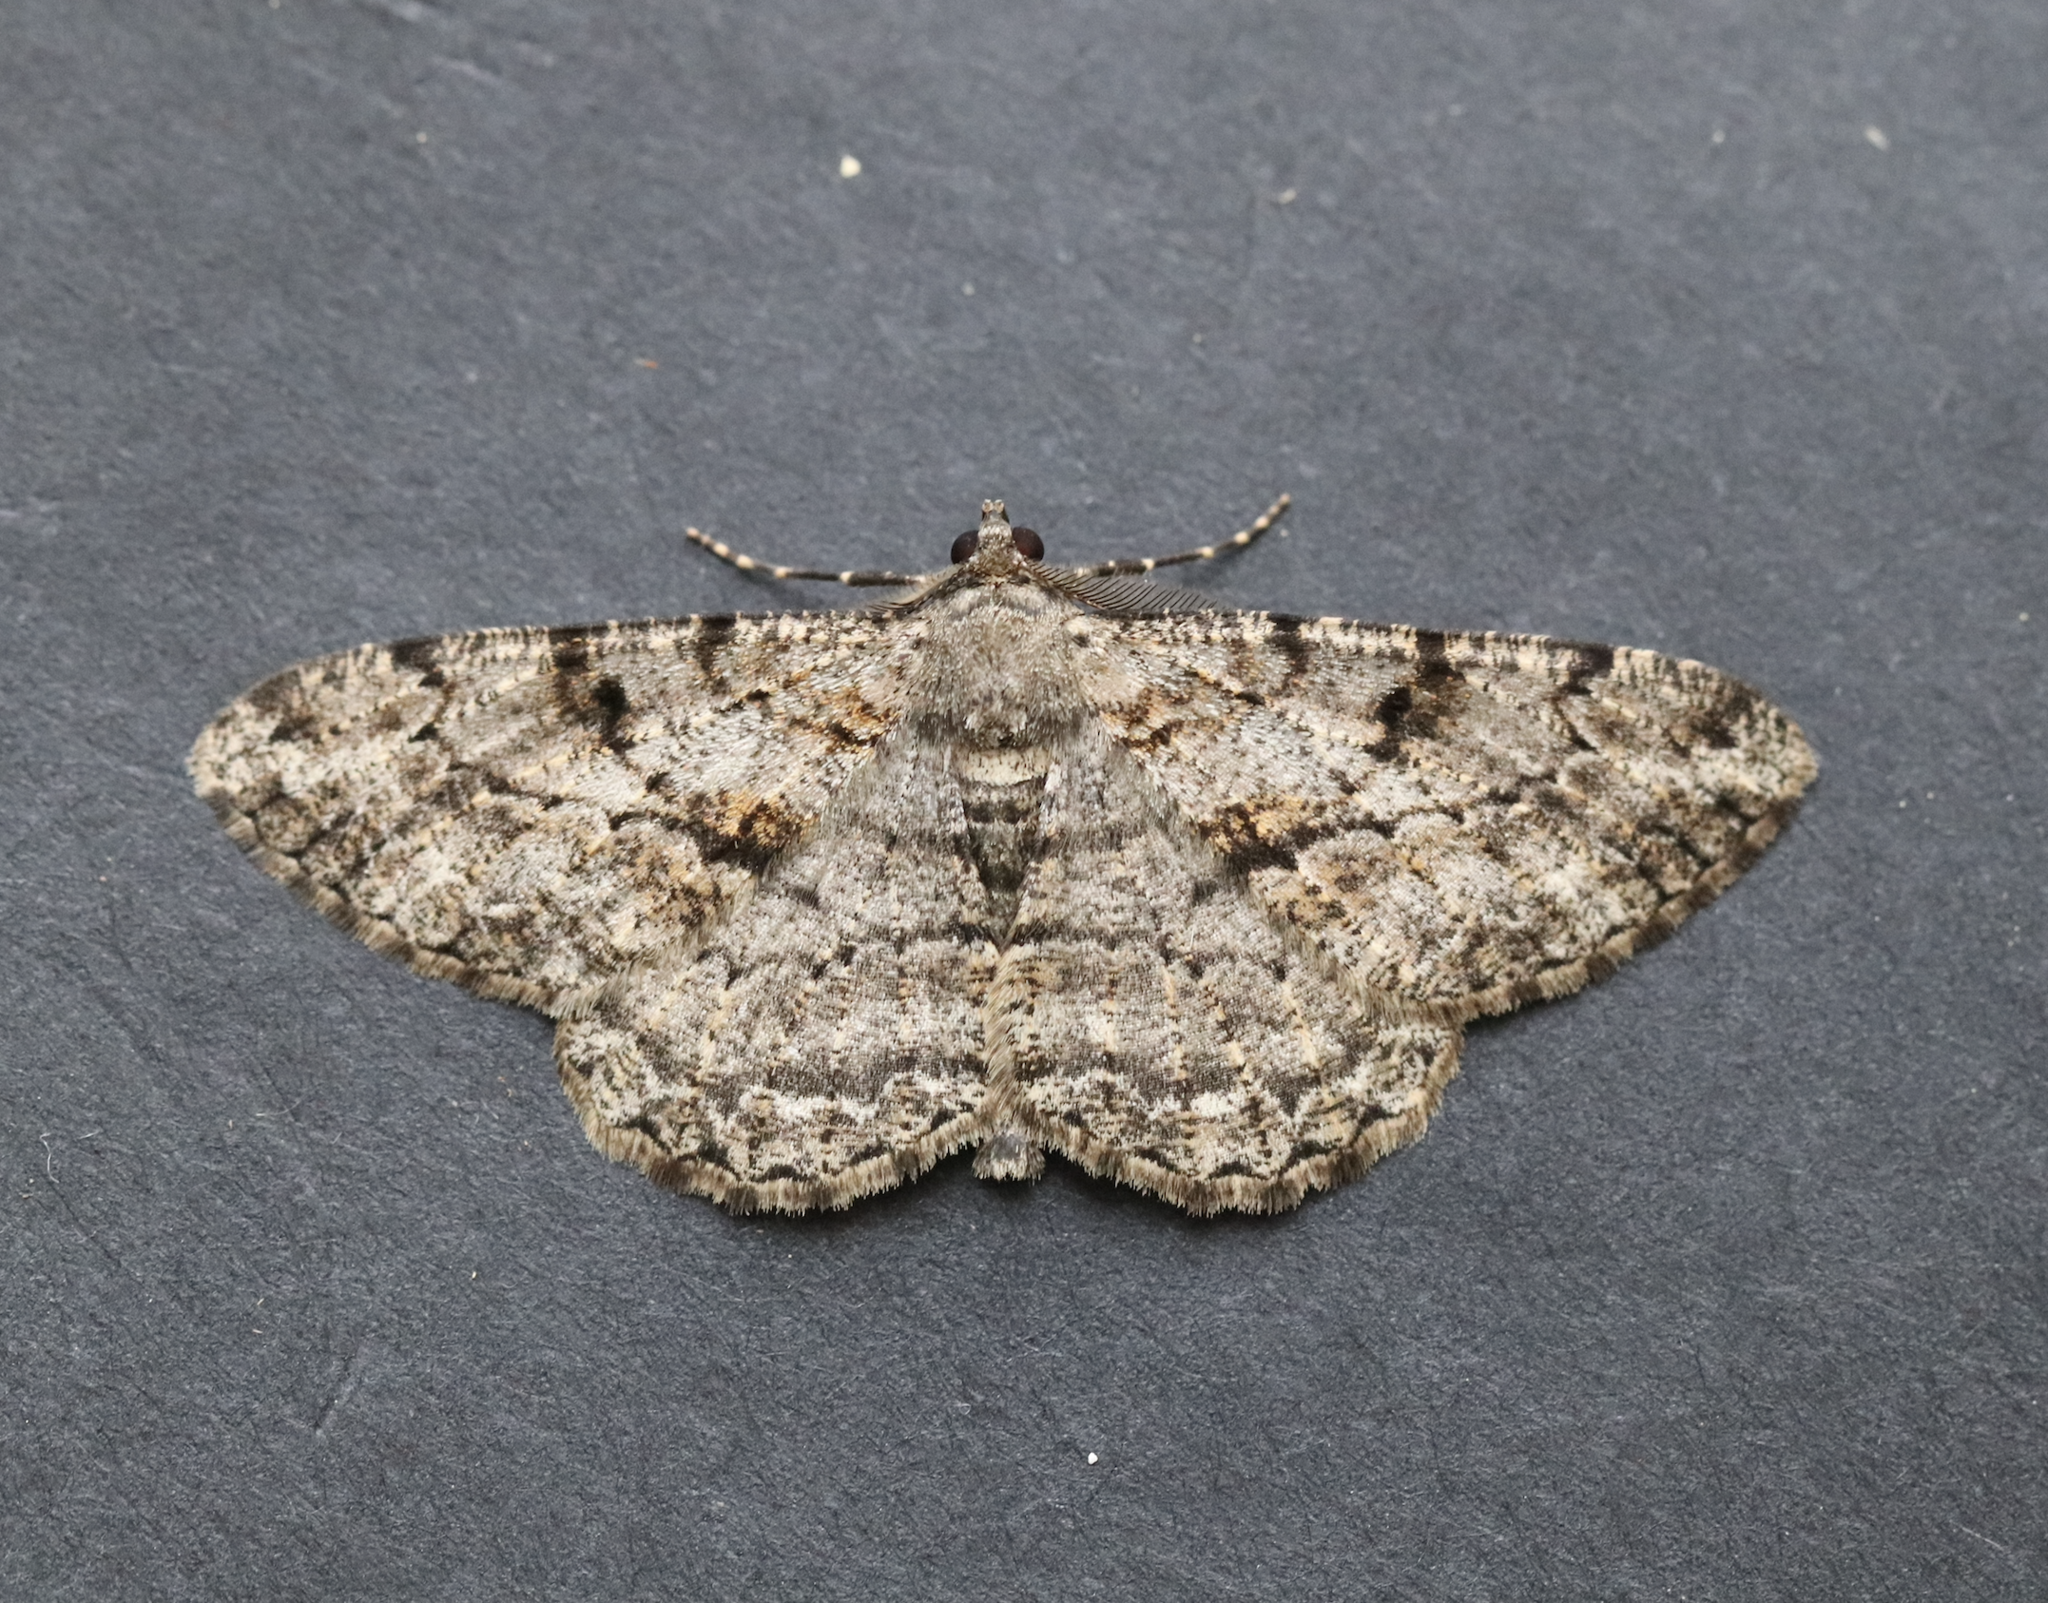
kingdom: Animalia
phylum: Arthropoda
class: Insecta
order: Lepidoptera
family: Geometridae
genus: Peribatodes
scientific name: Peribatodes rhomboidaria
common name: Willow beauty
